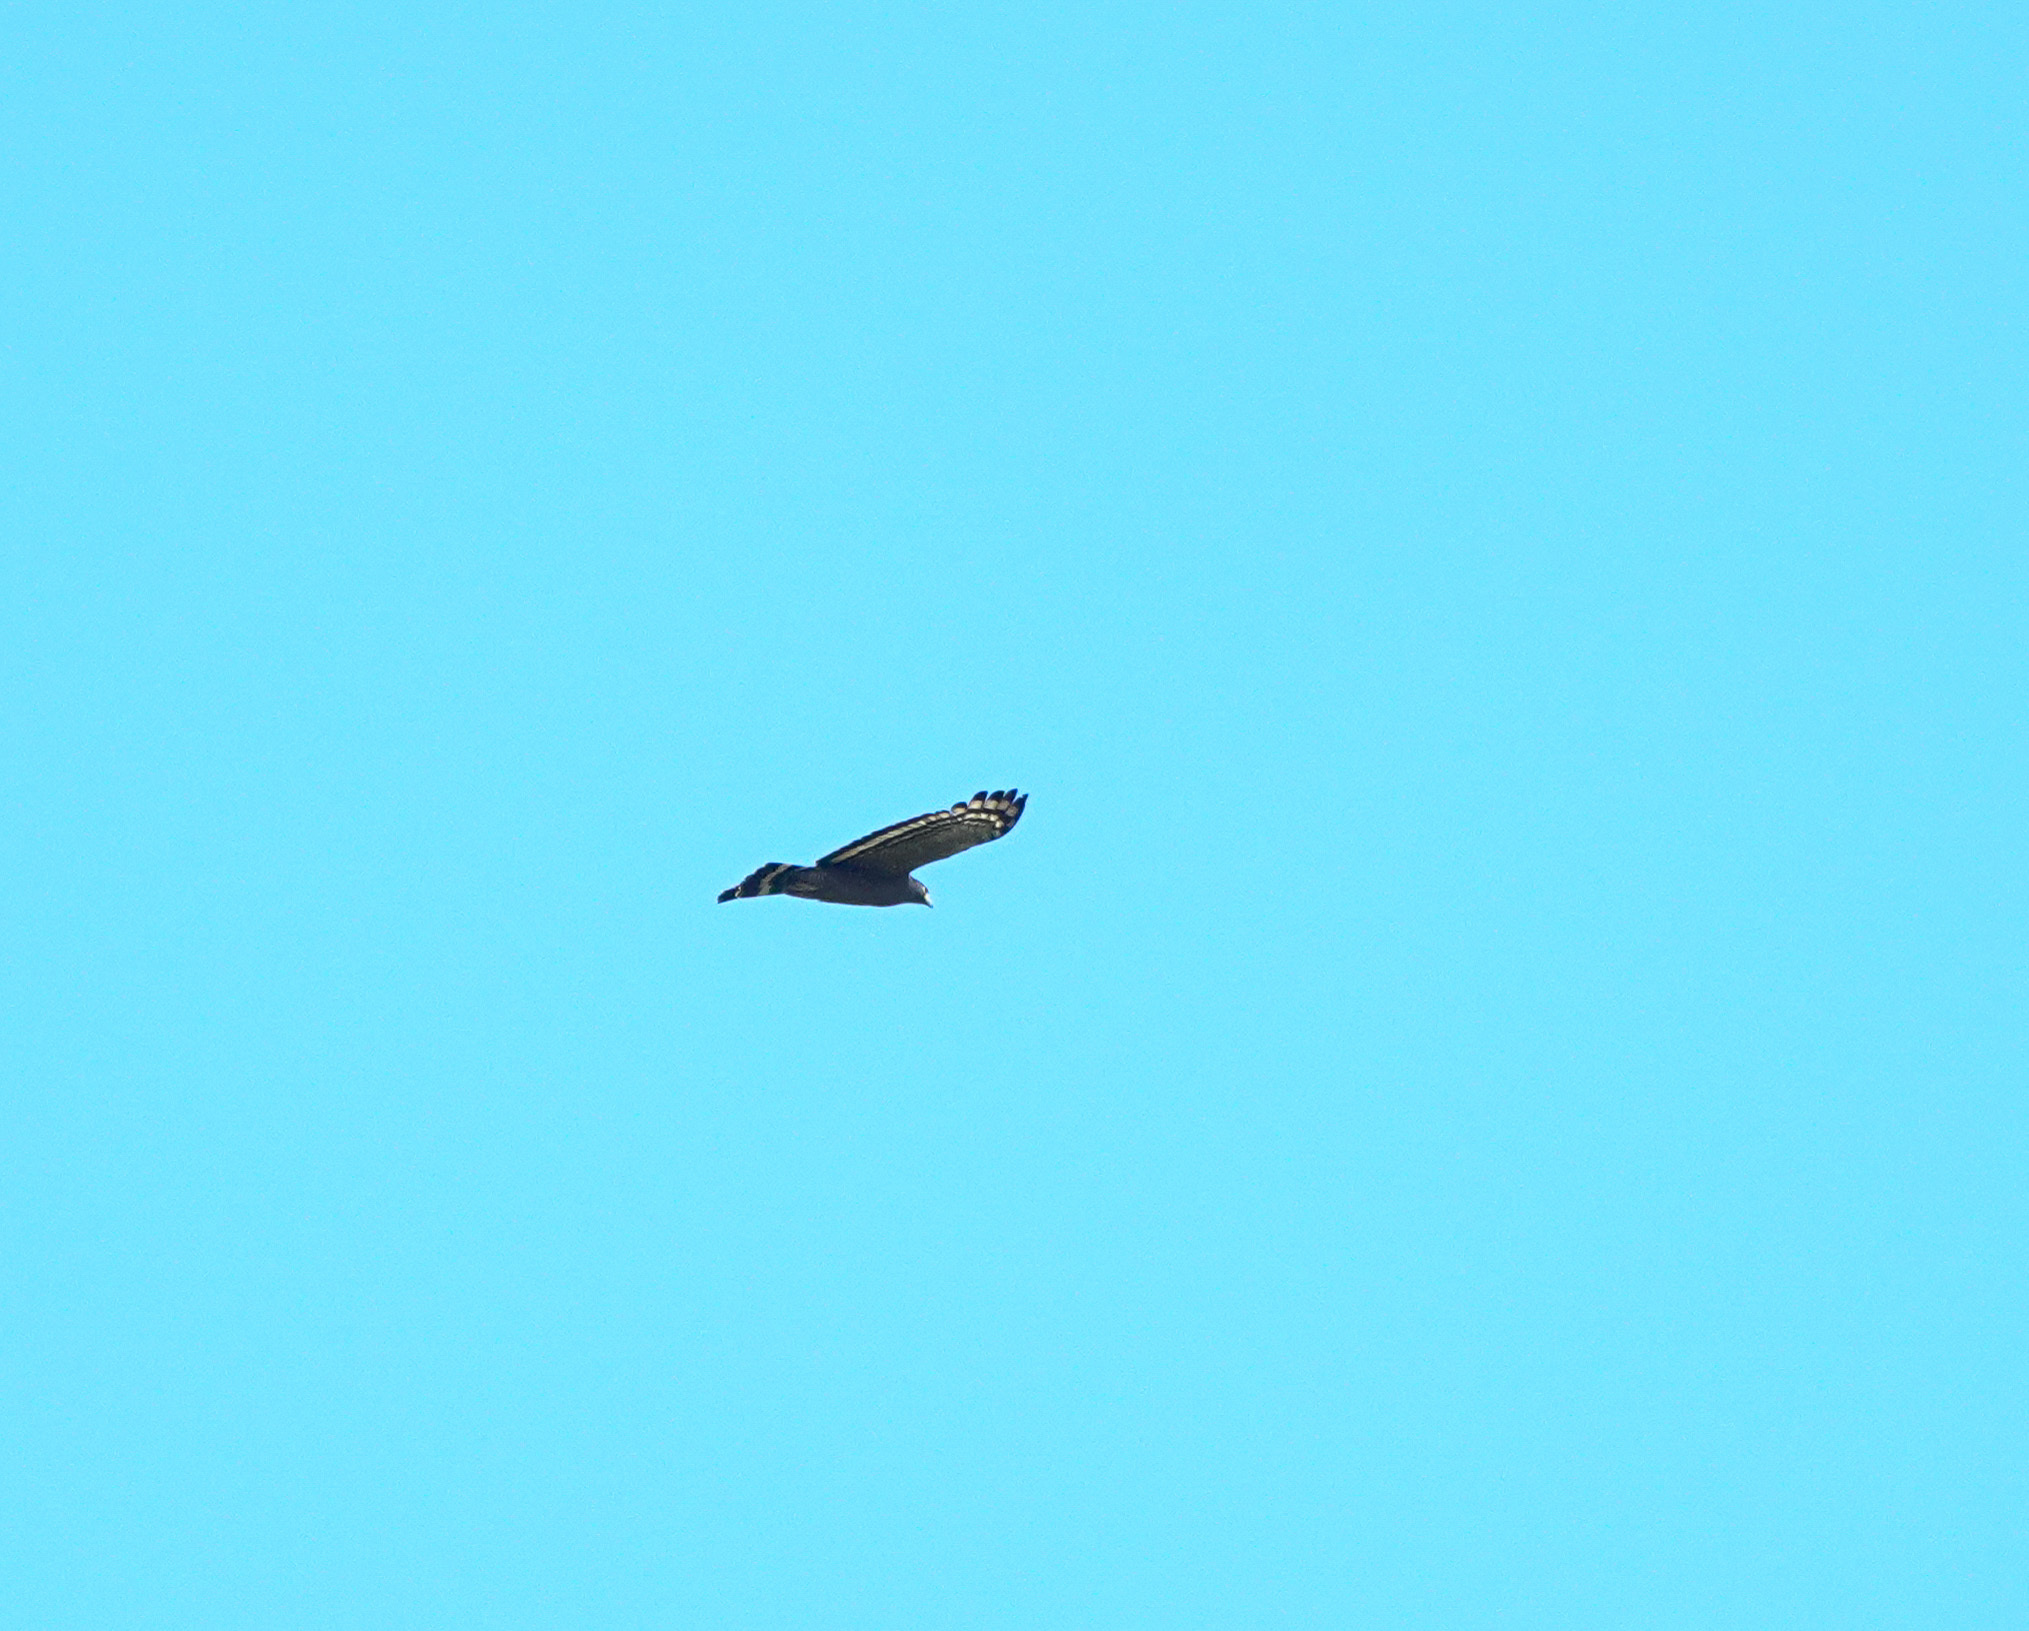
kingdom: Animalia
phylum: Chordata
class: Aves
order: Accipitriformes
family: Accipitridae
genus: Spilornis
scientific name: Spilornis cheela
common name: Crested serpent eagle
